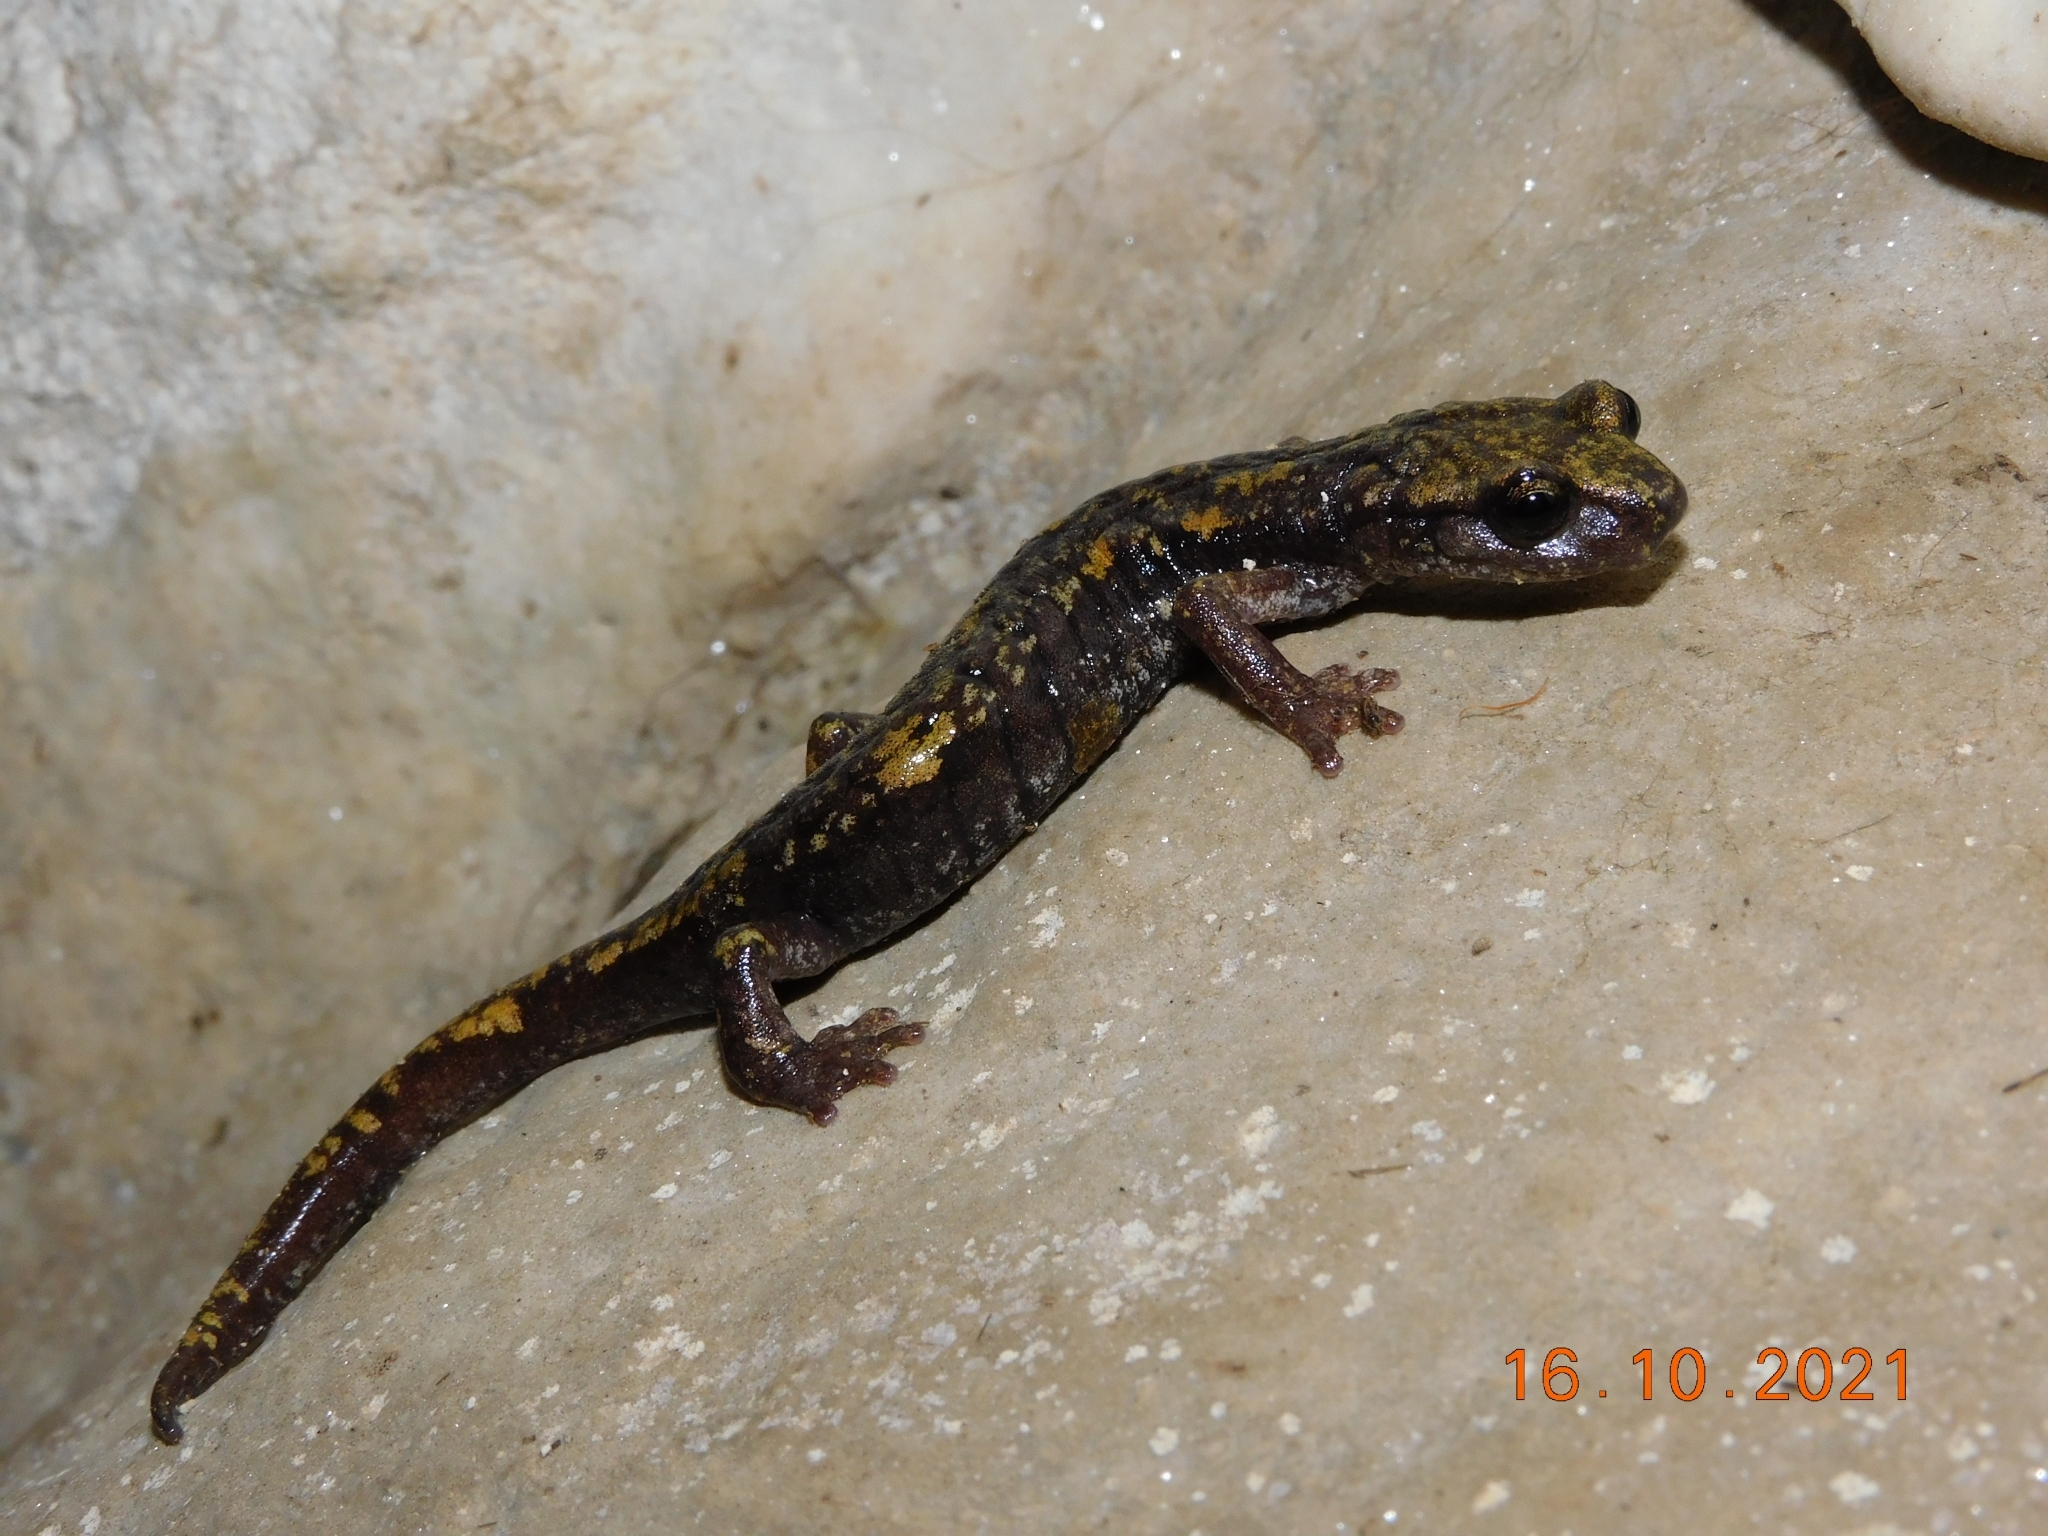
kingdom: Animalia
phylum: Chordata
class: Amphibia
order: Caudata
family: Plethodontidae
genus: Speleomantes
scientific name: Speleomantes strinatii
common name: French cave salamander
